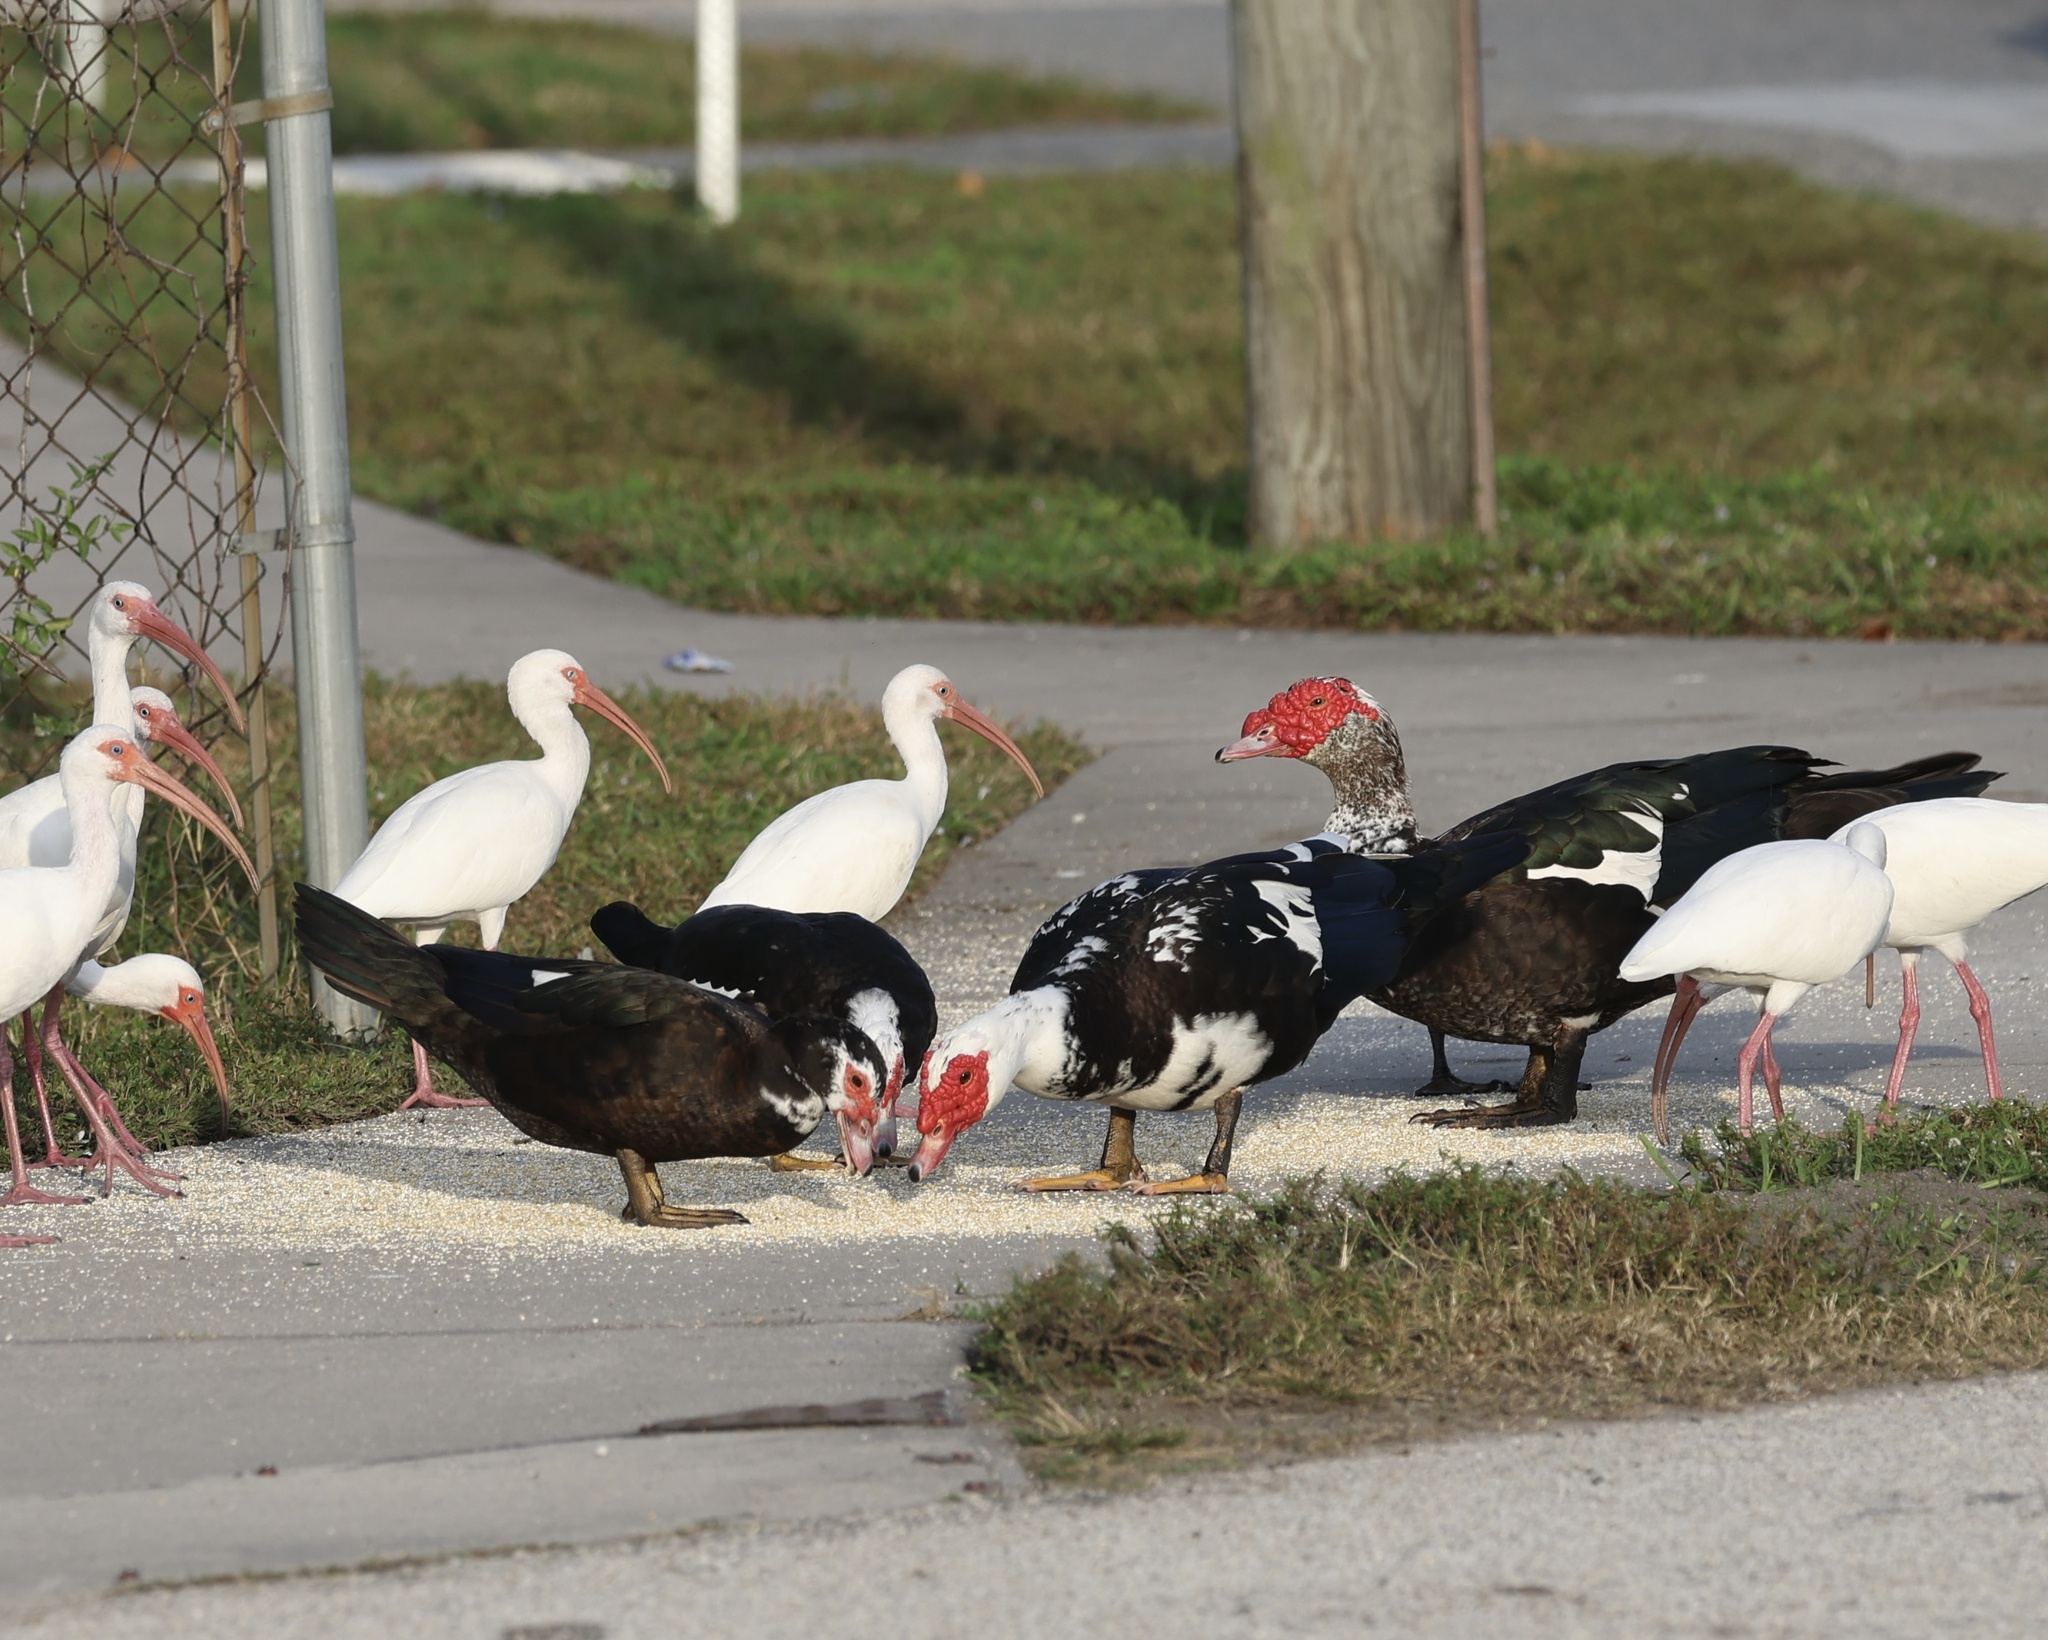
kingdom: Animalia
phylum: Chordata
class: Aves
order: Anseriformes
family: Anatidae
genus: Cairina
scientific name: Cairina moschata
